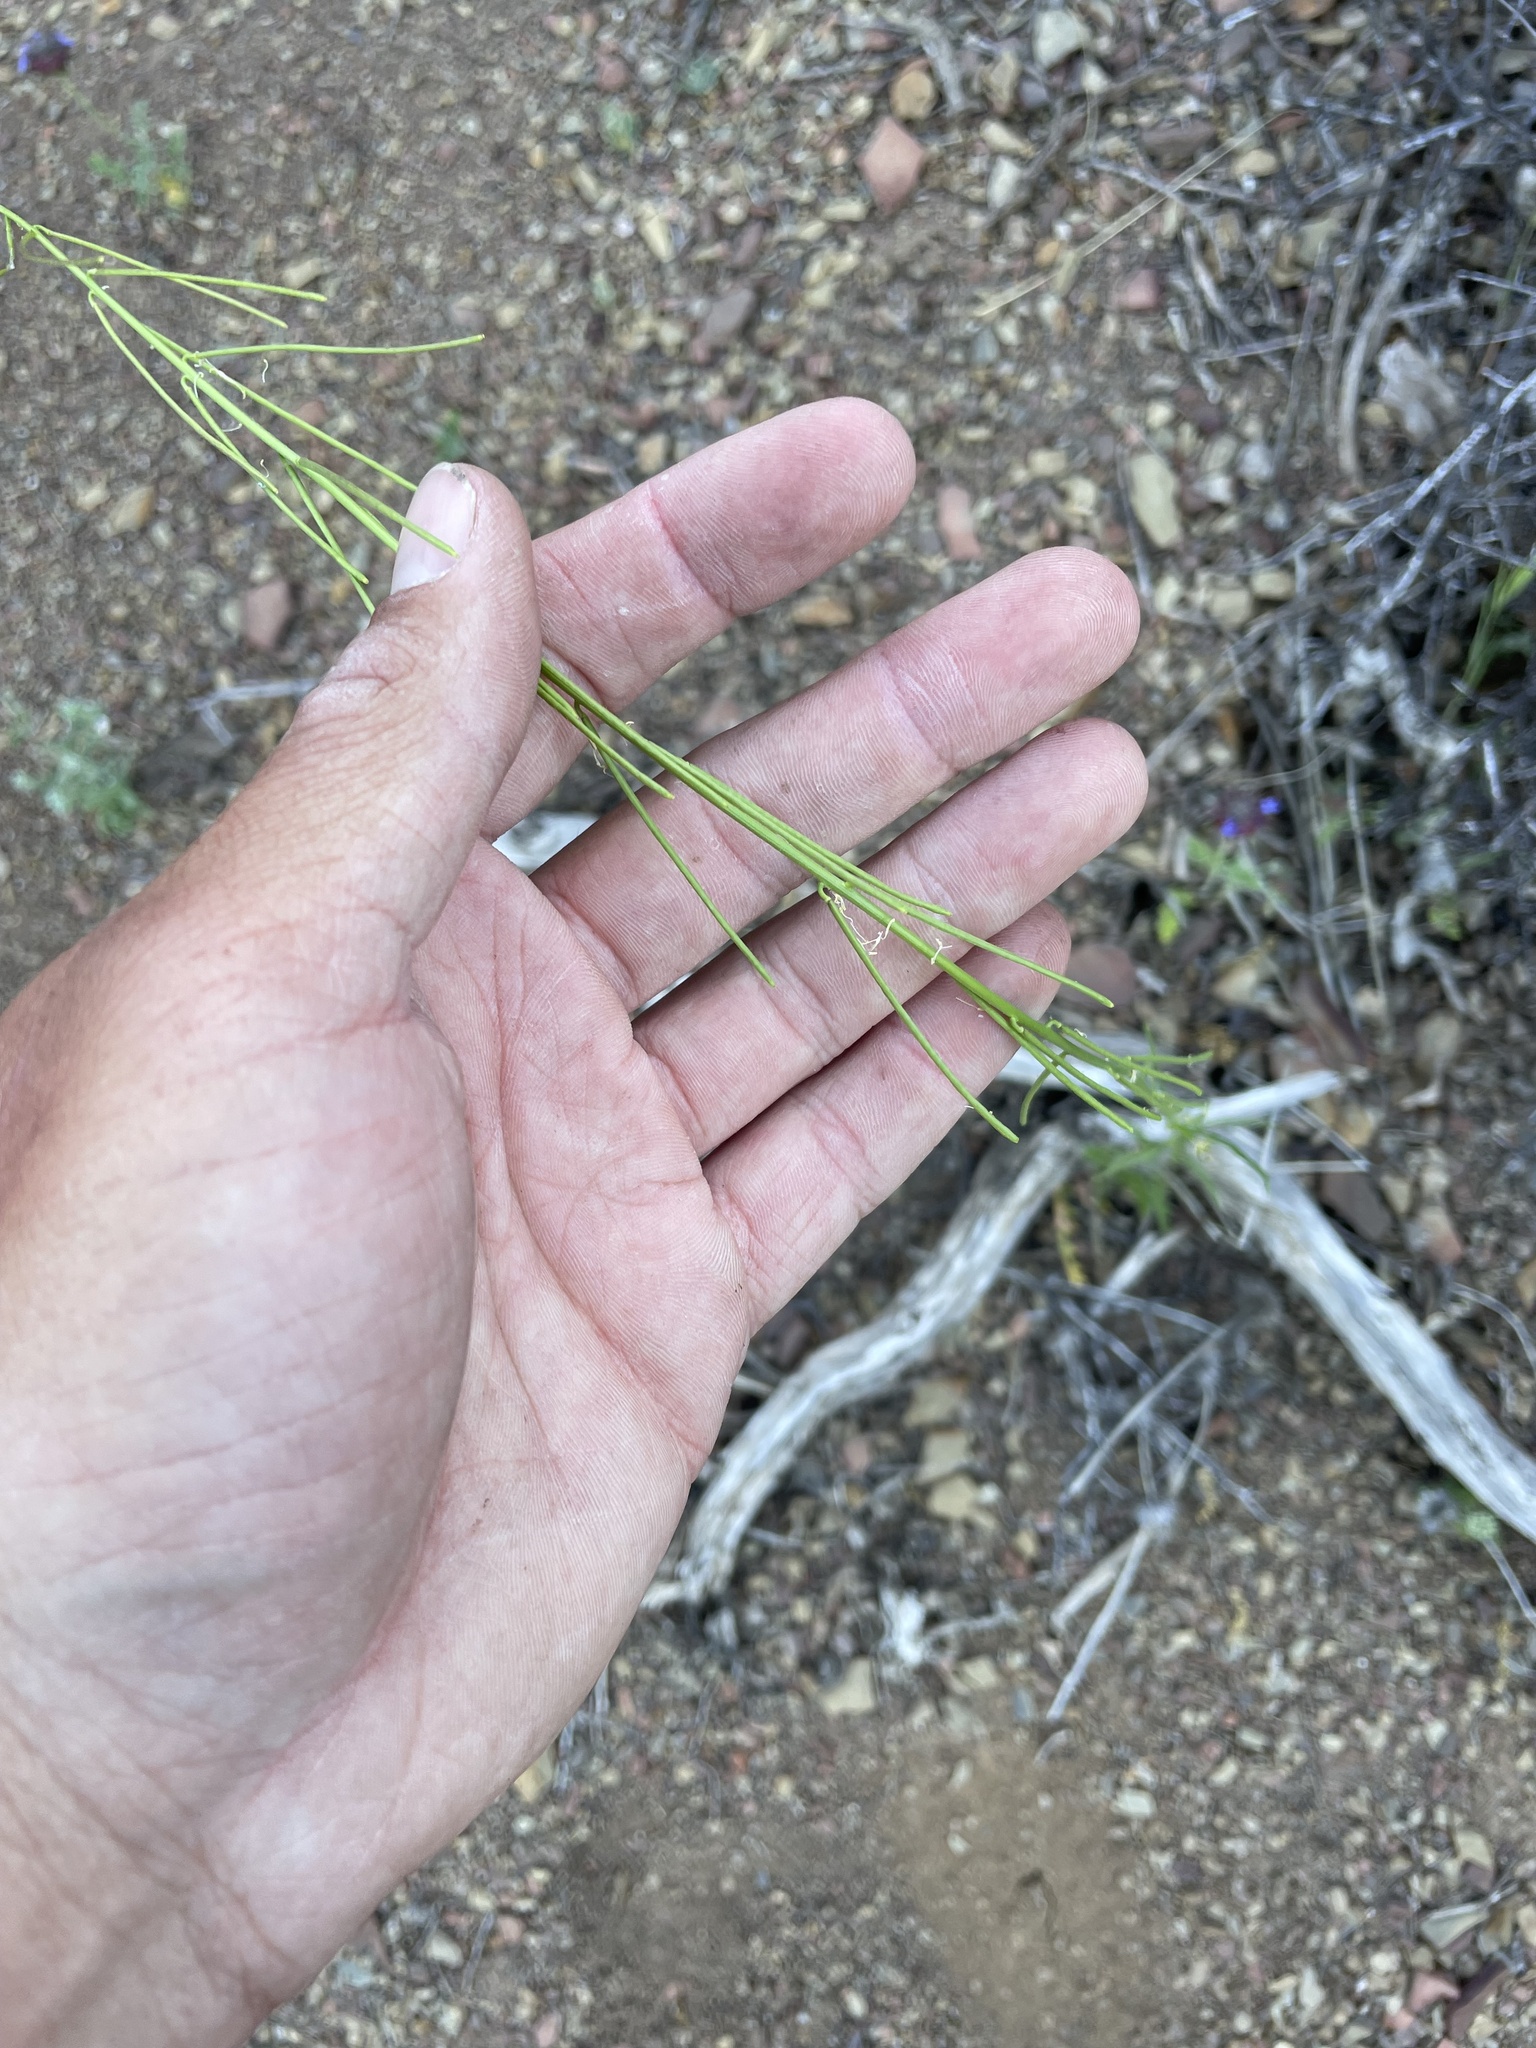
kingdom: Plantae
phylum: Tracheophyta
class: Magnoliopsida
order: Brassicales
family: Brassicaceae
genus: Streptanthus
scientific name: Streptanthus lasiophyllus
